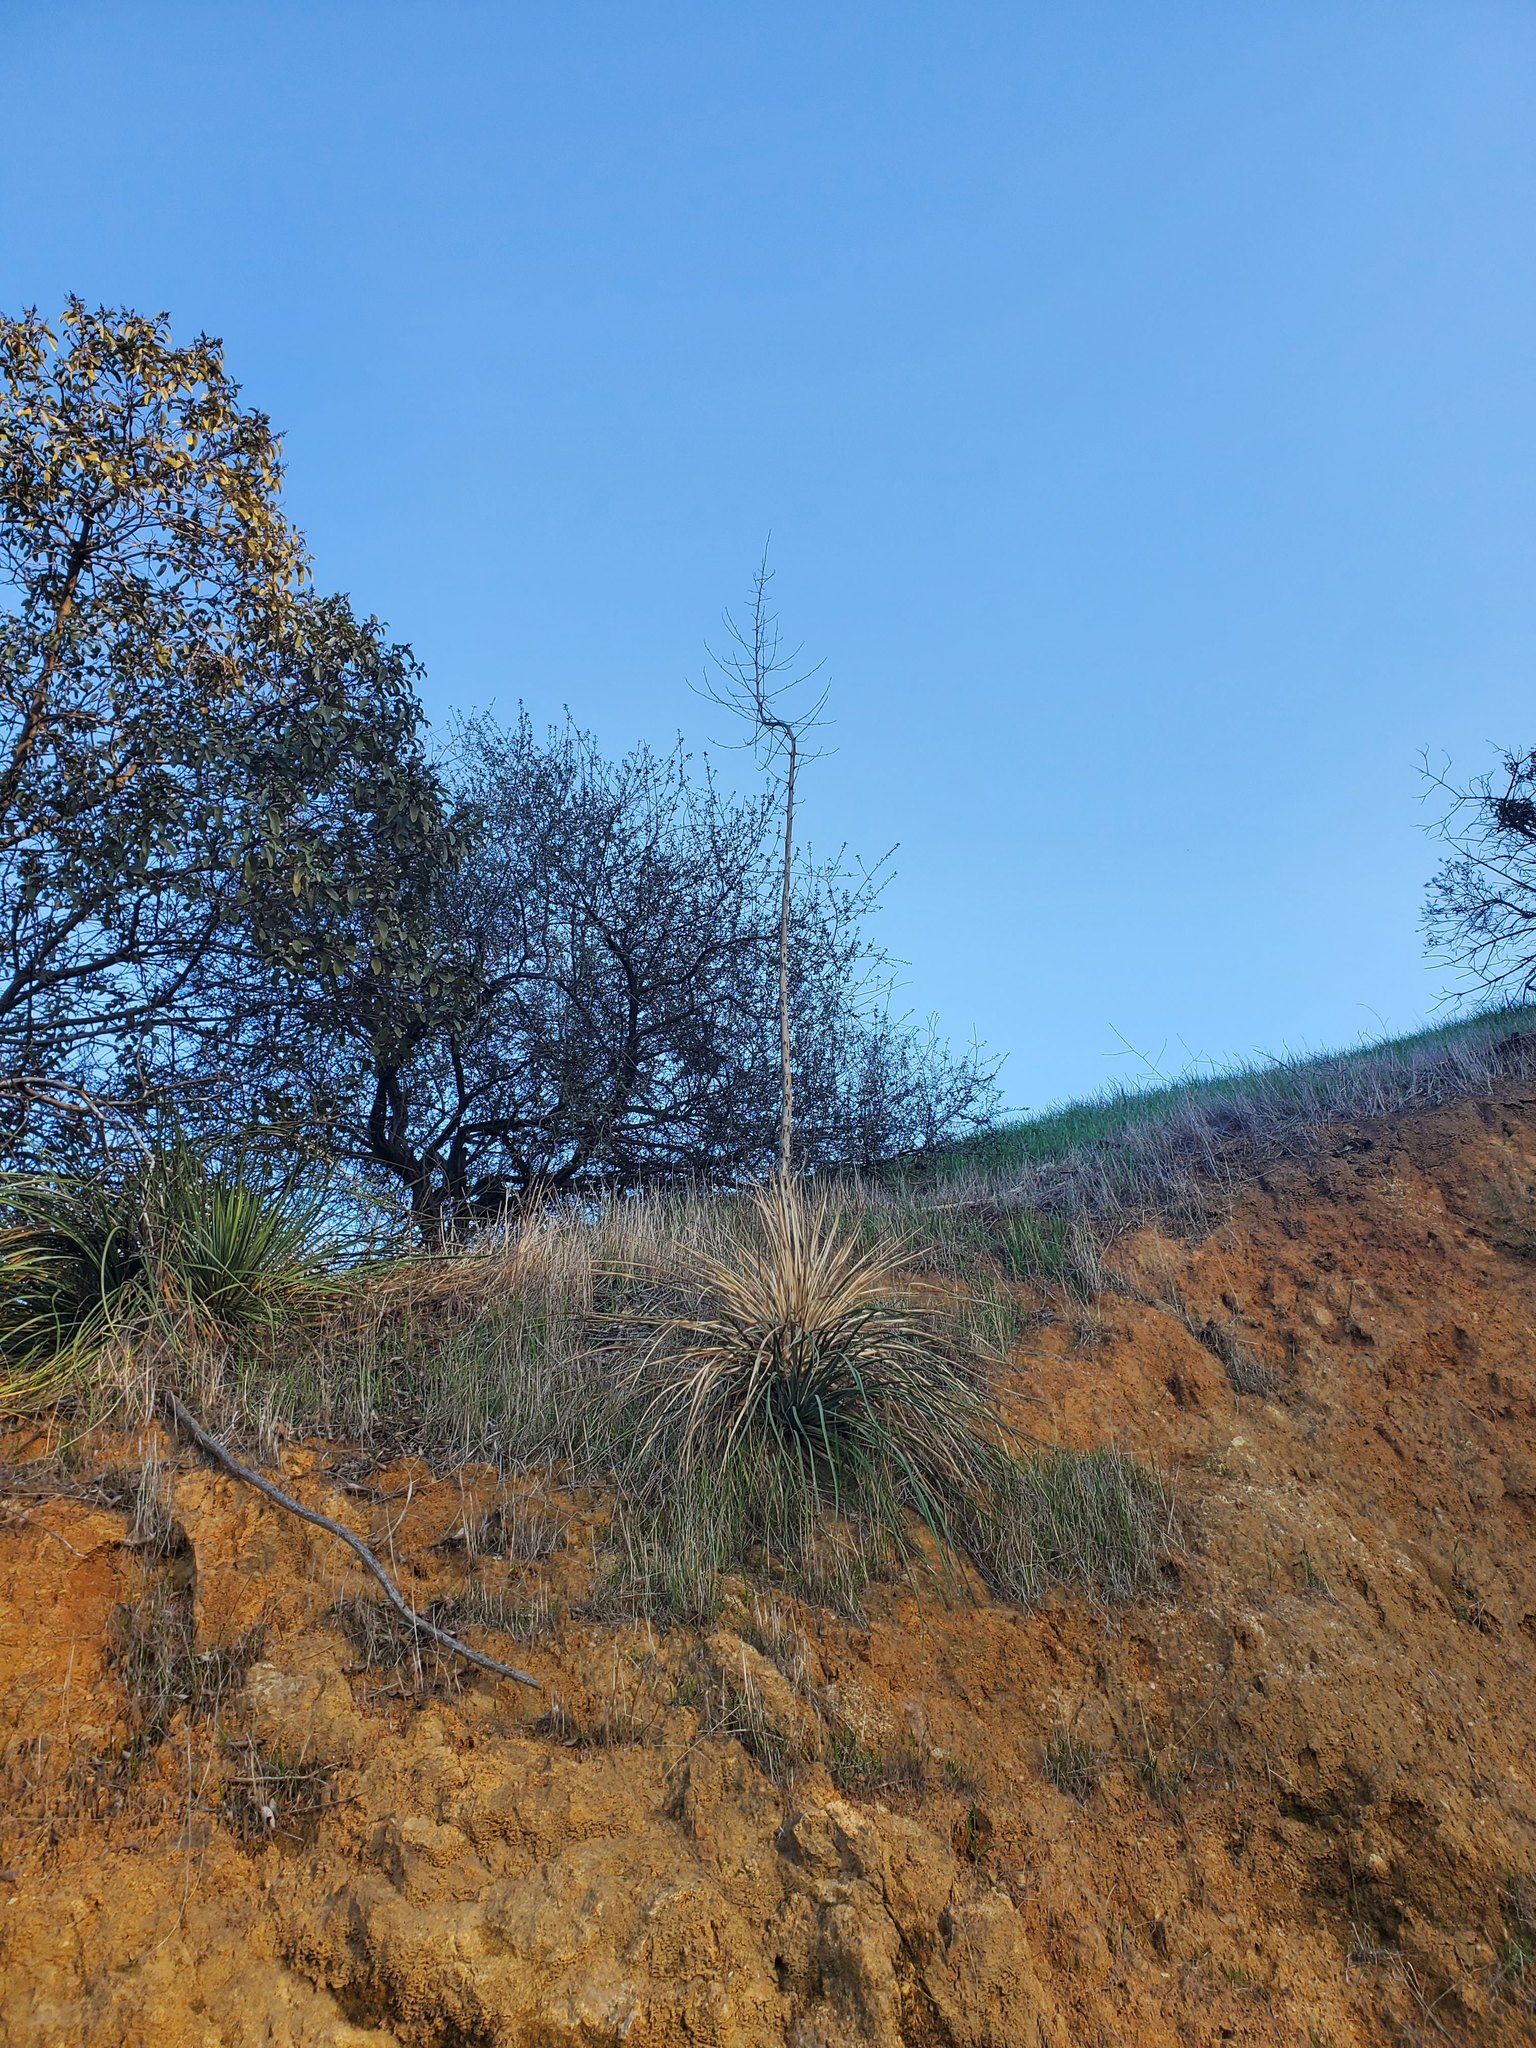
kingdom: Plantae
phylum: Tracheophyta
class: Liliopsida
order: Asparagales
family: Asparagaceae
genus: Hesperoyucca
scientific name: Hesperoyucca whipplei
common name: Our lord's-candle
